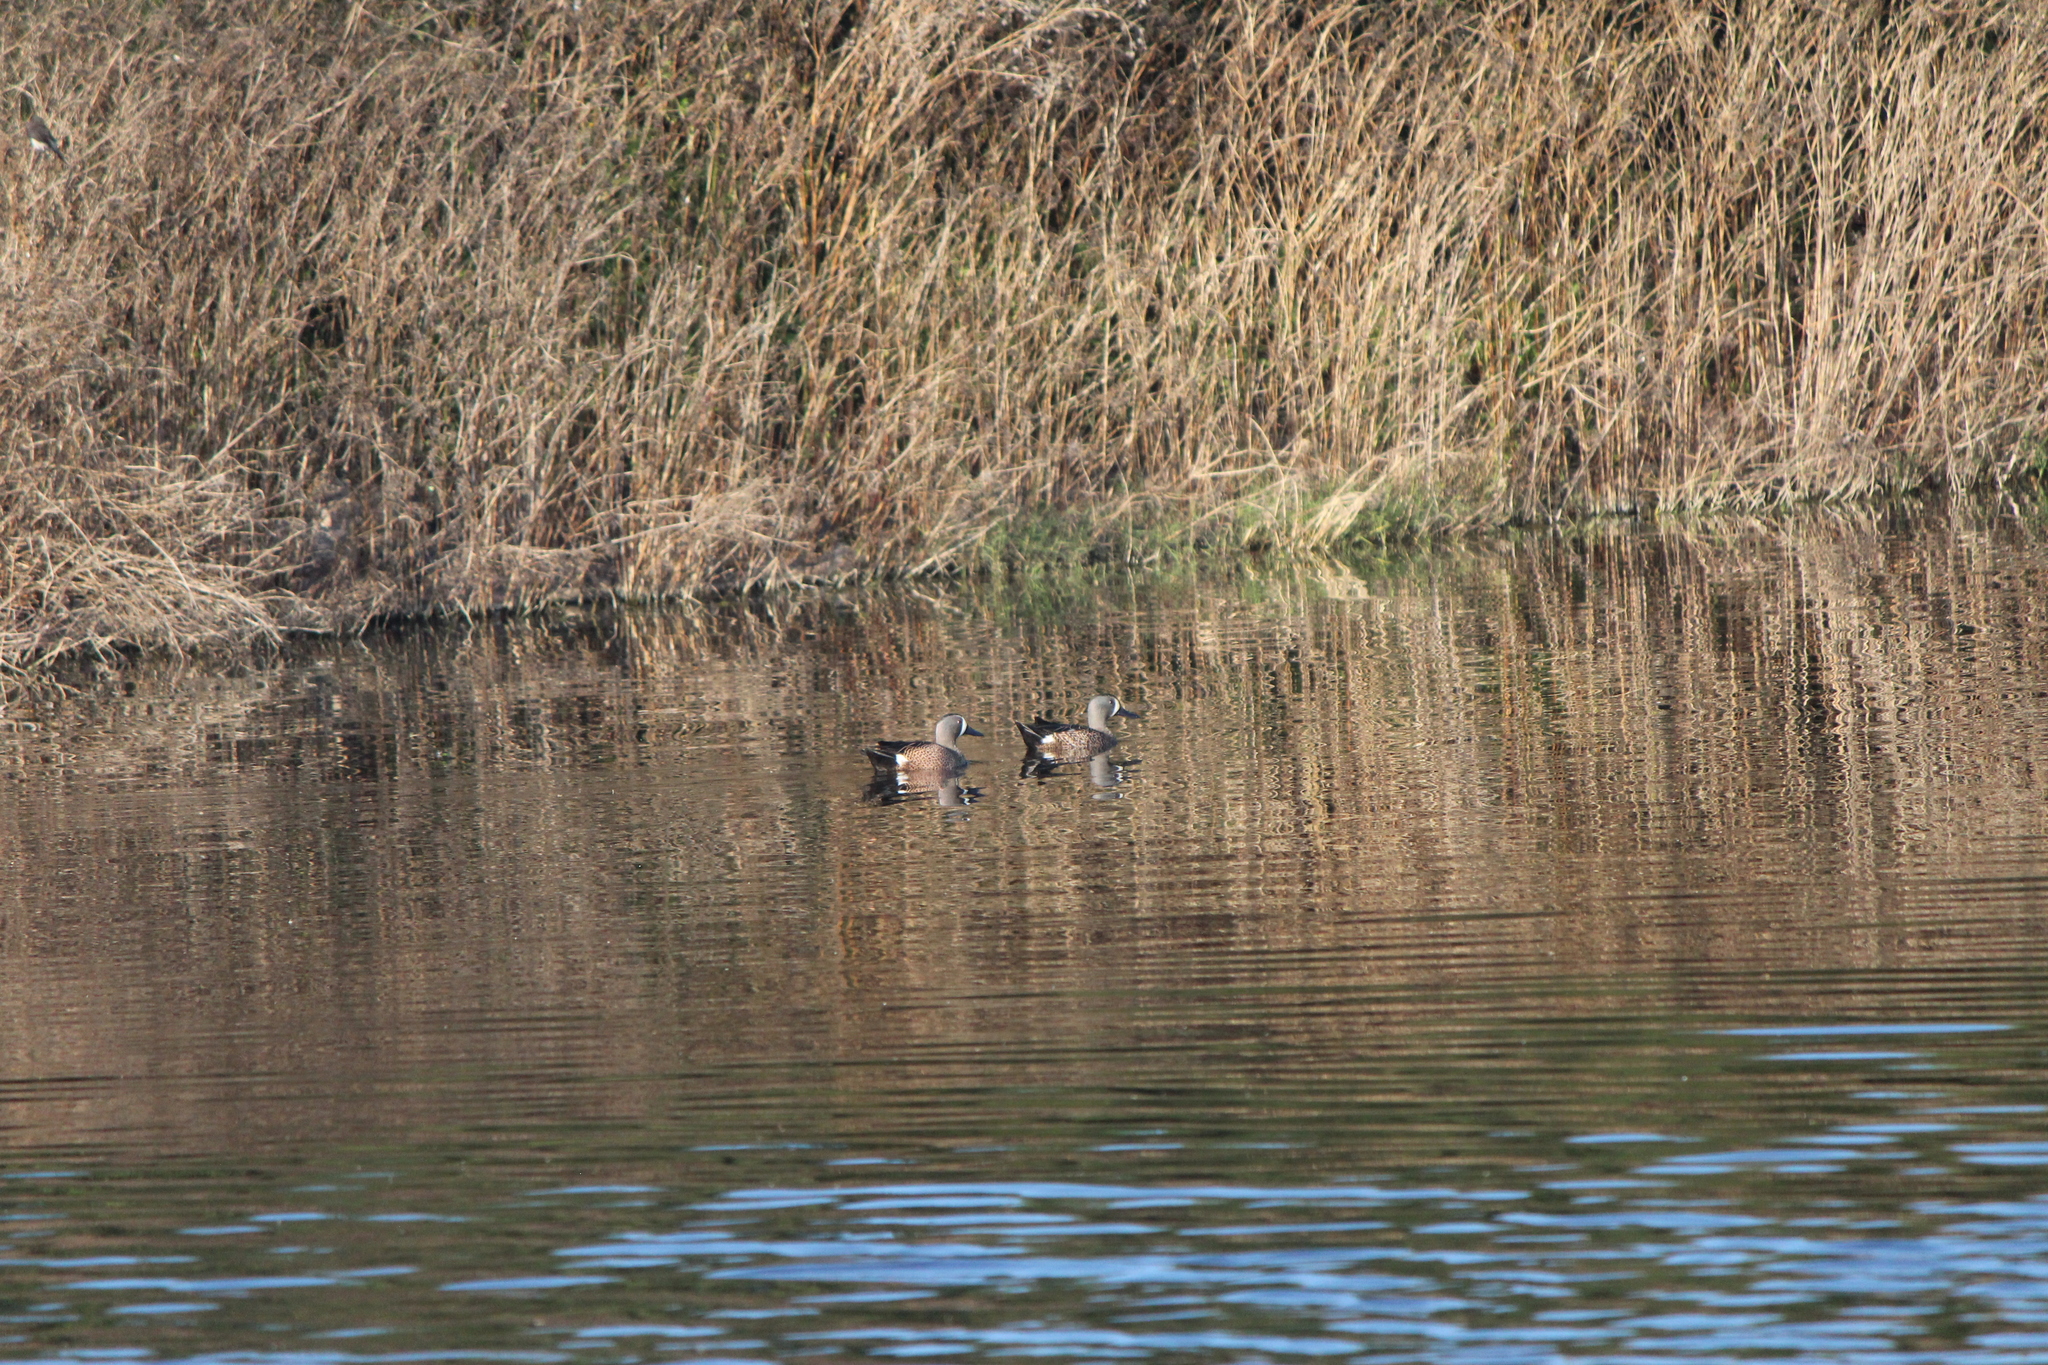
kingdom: Animalia
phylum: Chordata
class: Aves
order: Anseriformes
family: Anatidae
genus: Spatula
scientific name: Spatula discors
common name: Blue-winged teal
